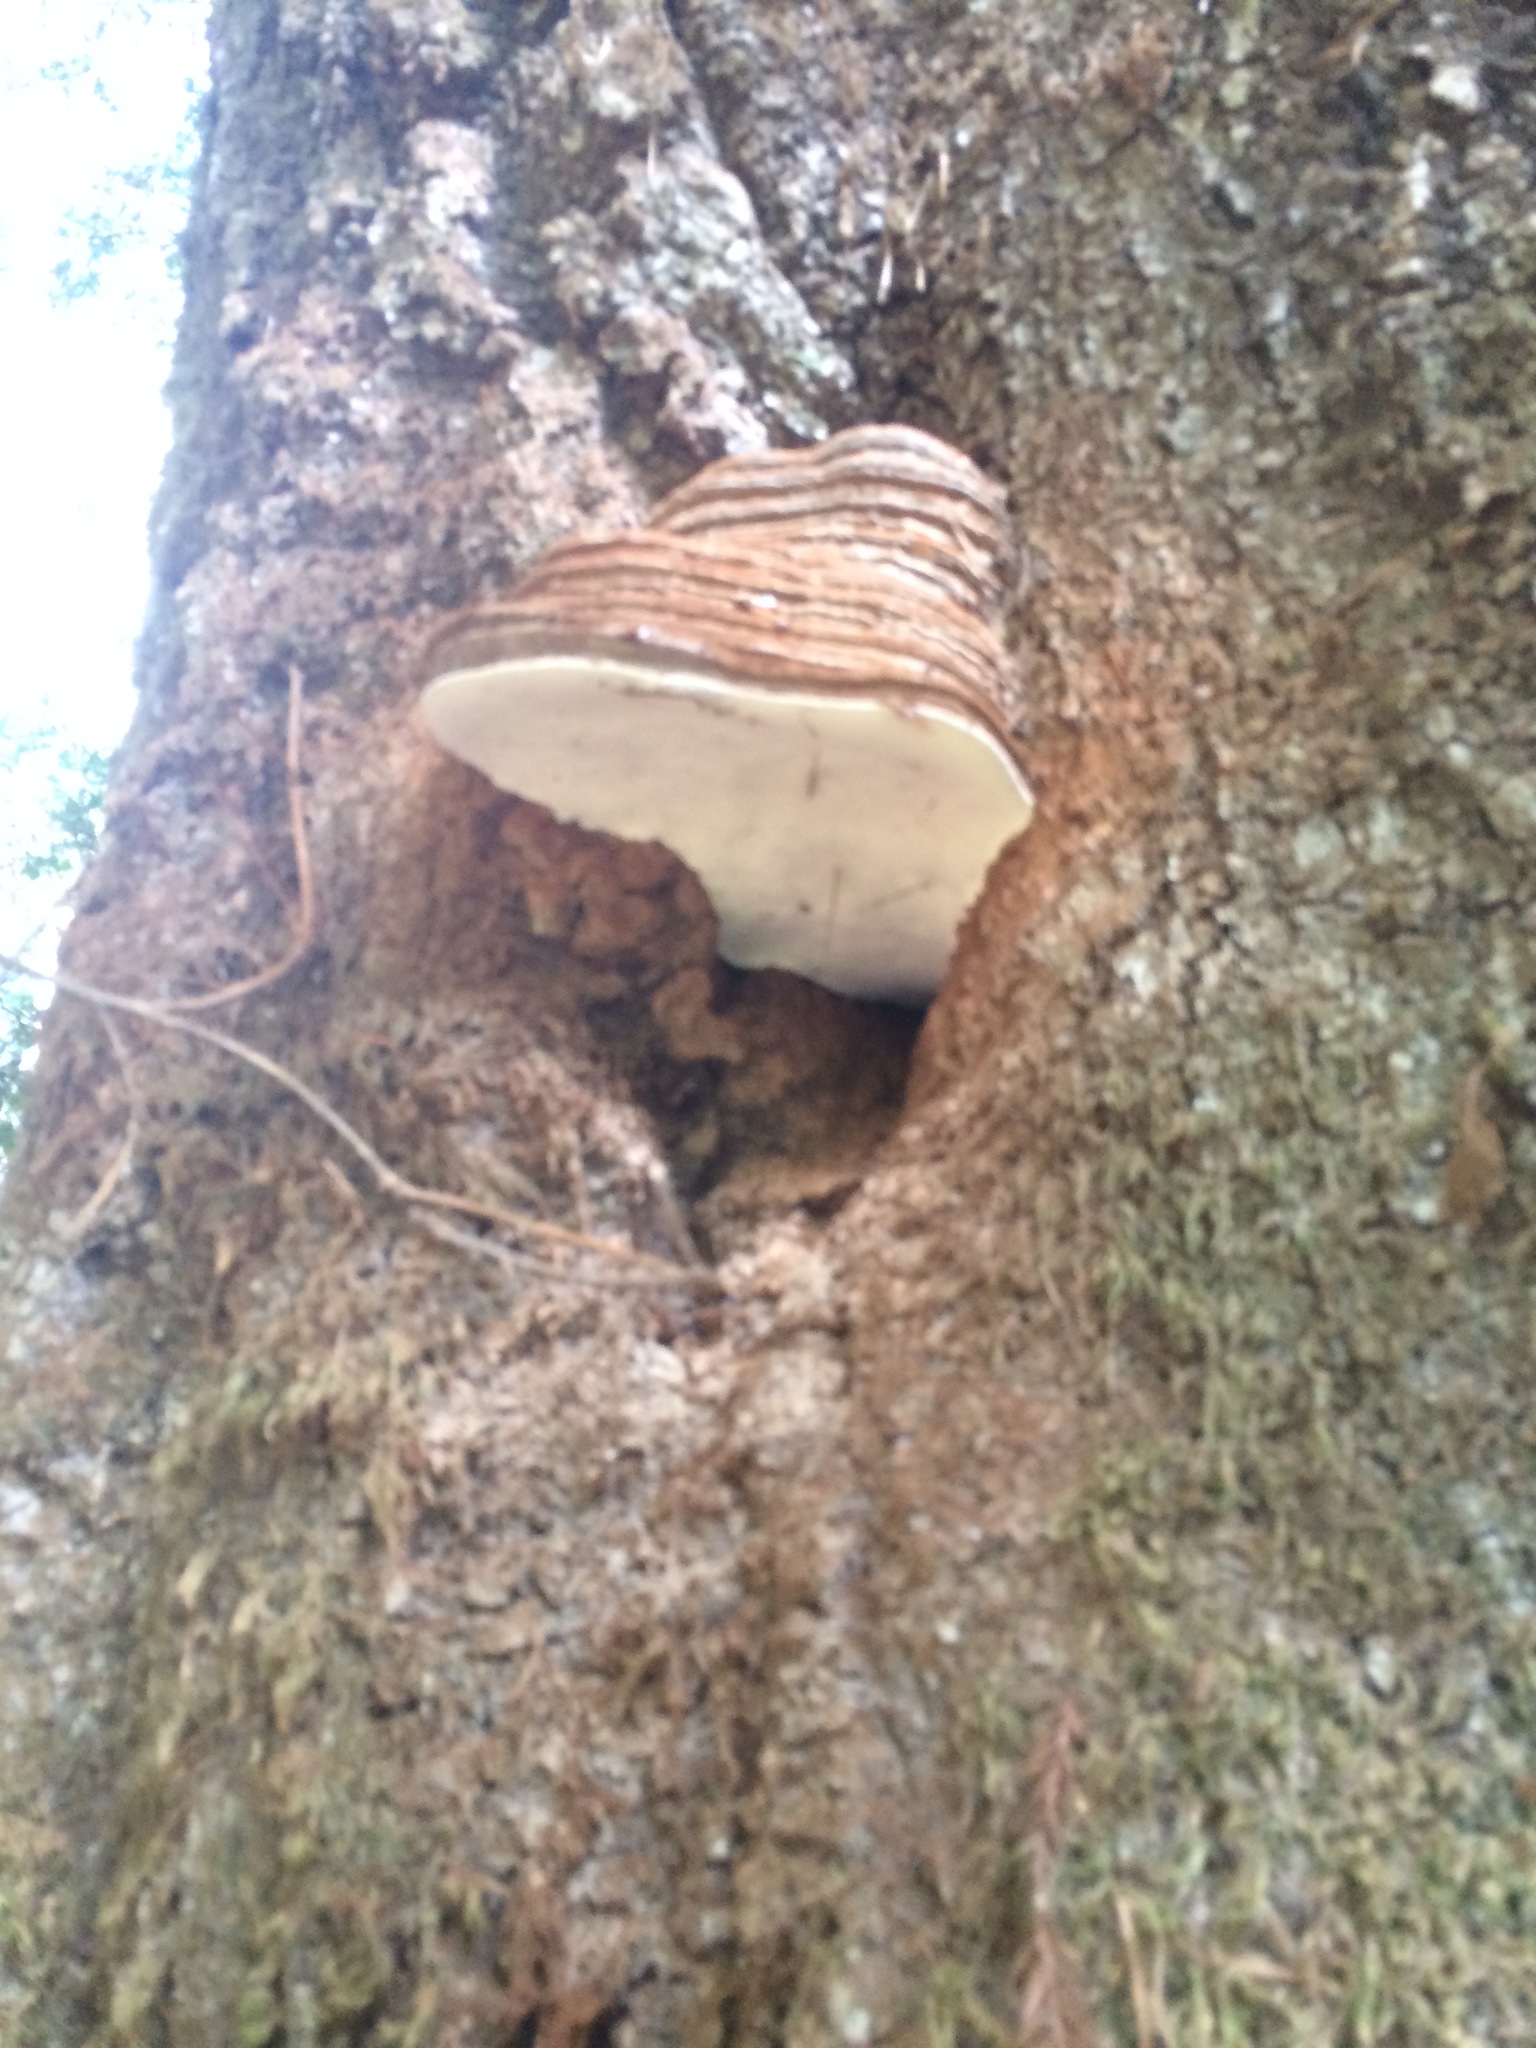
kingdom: Fungi
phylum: Basidiomycota
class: Agaricomycetes
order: Polyporales
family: Polyporaceae
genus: Ganoderma
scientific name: Ganoderma brownii
